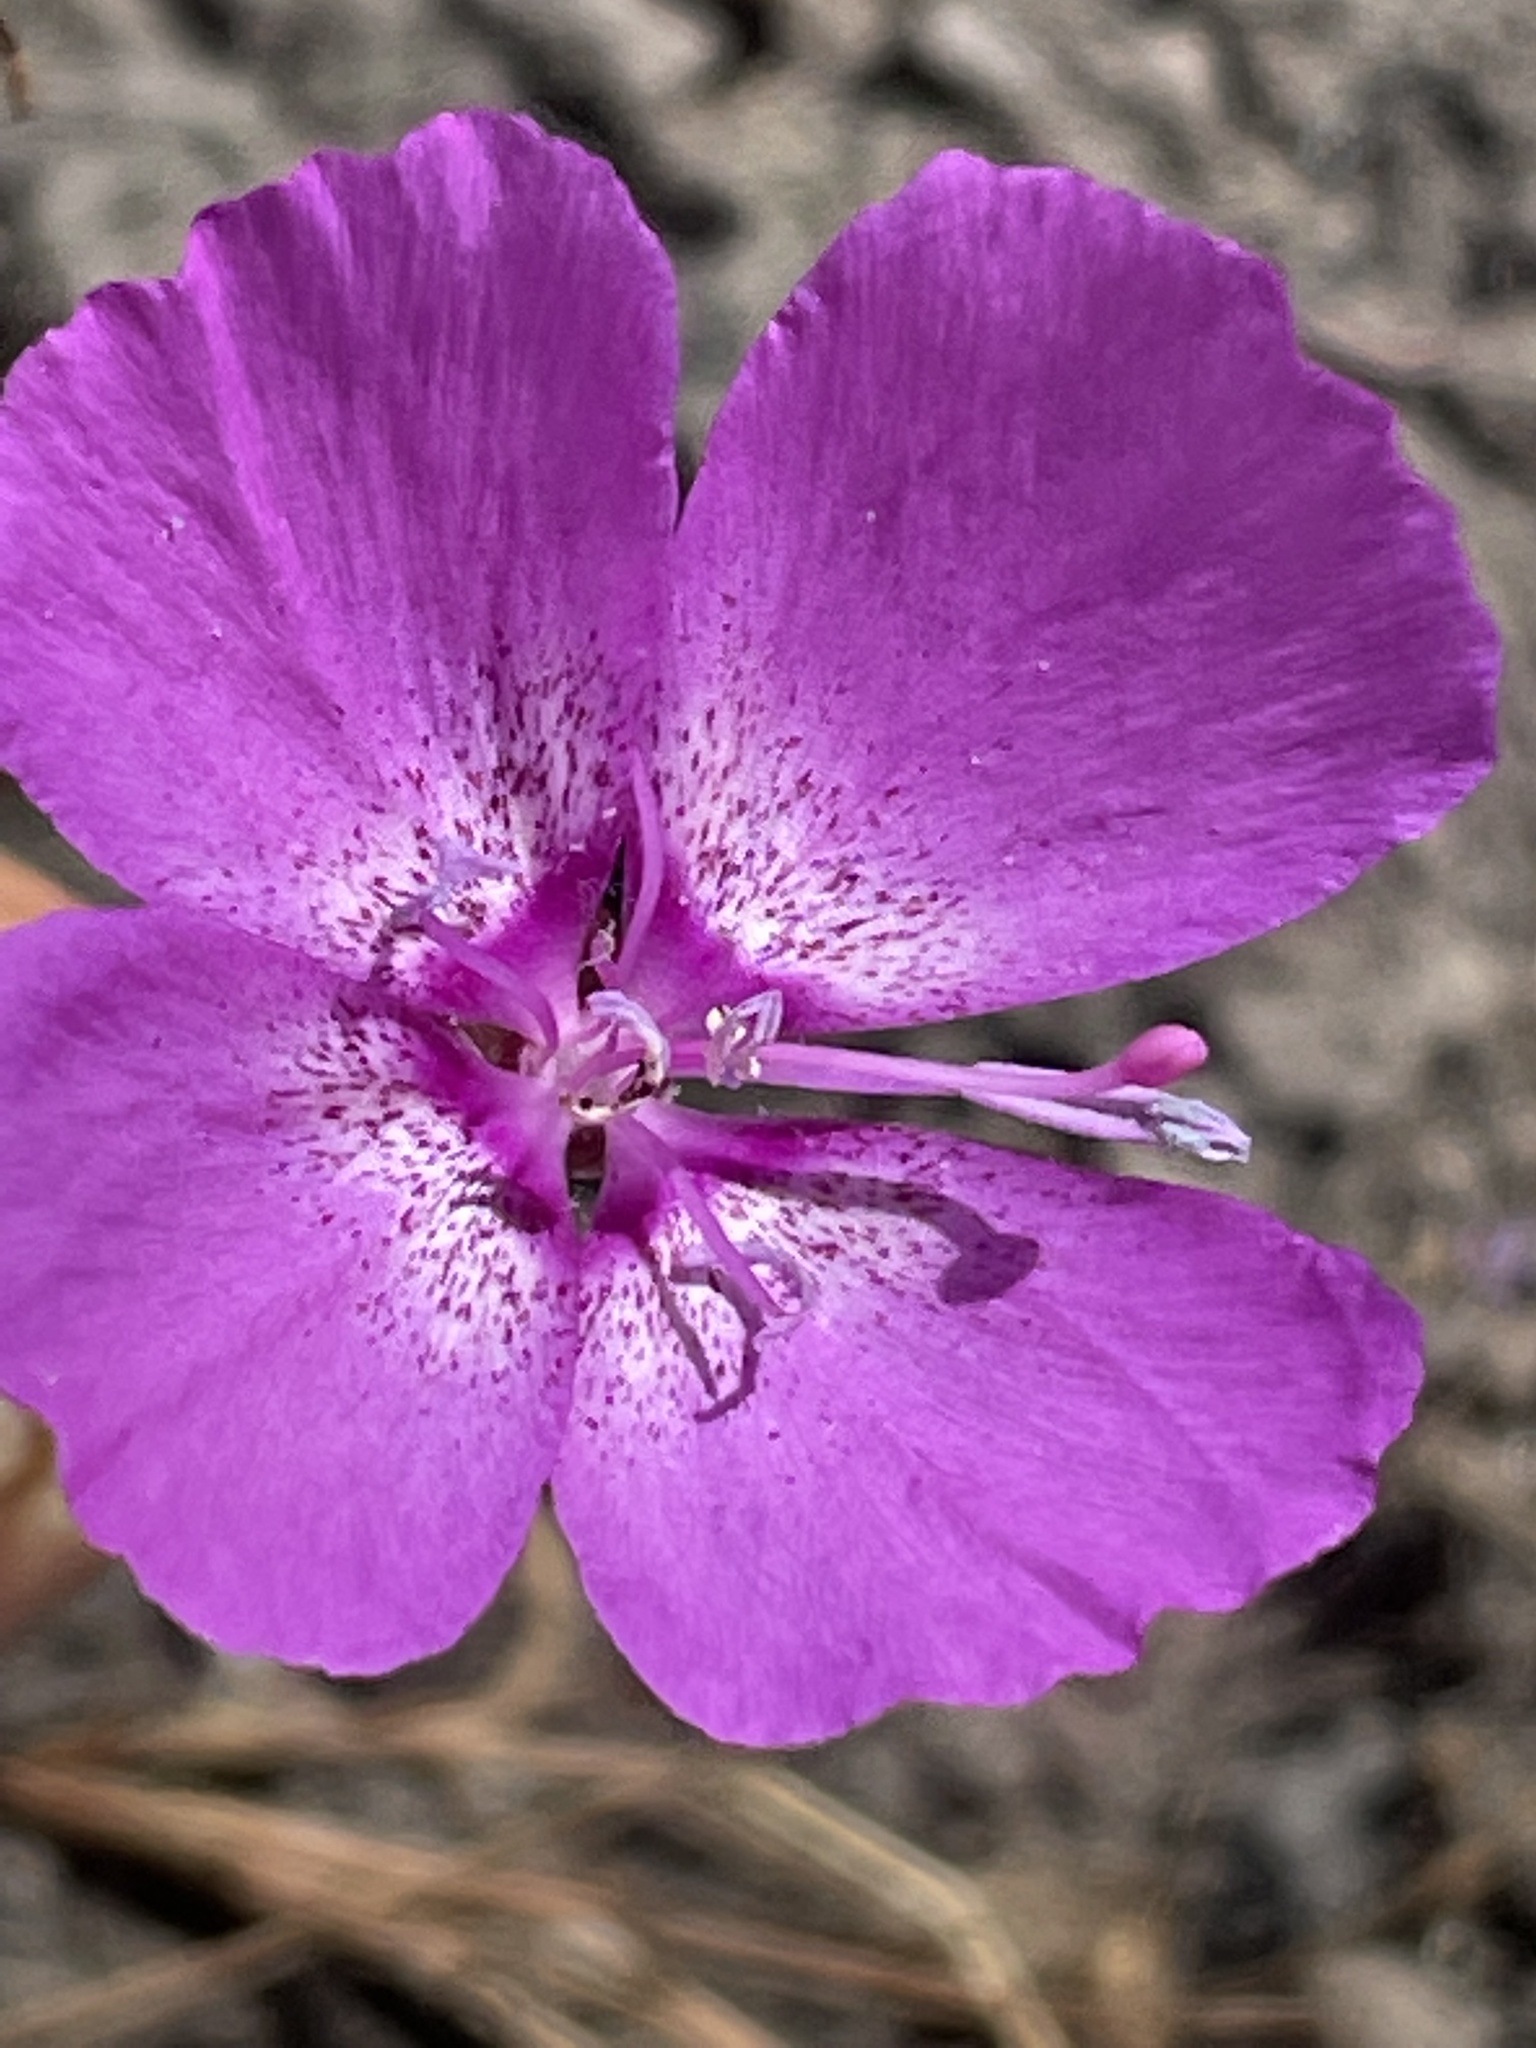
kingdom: Plantae
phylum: Tracheophyta
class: Magnoliopsida
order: Myrtales
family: Onagraceae
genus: Clarkia
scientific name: Clarkia lewisii
